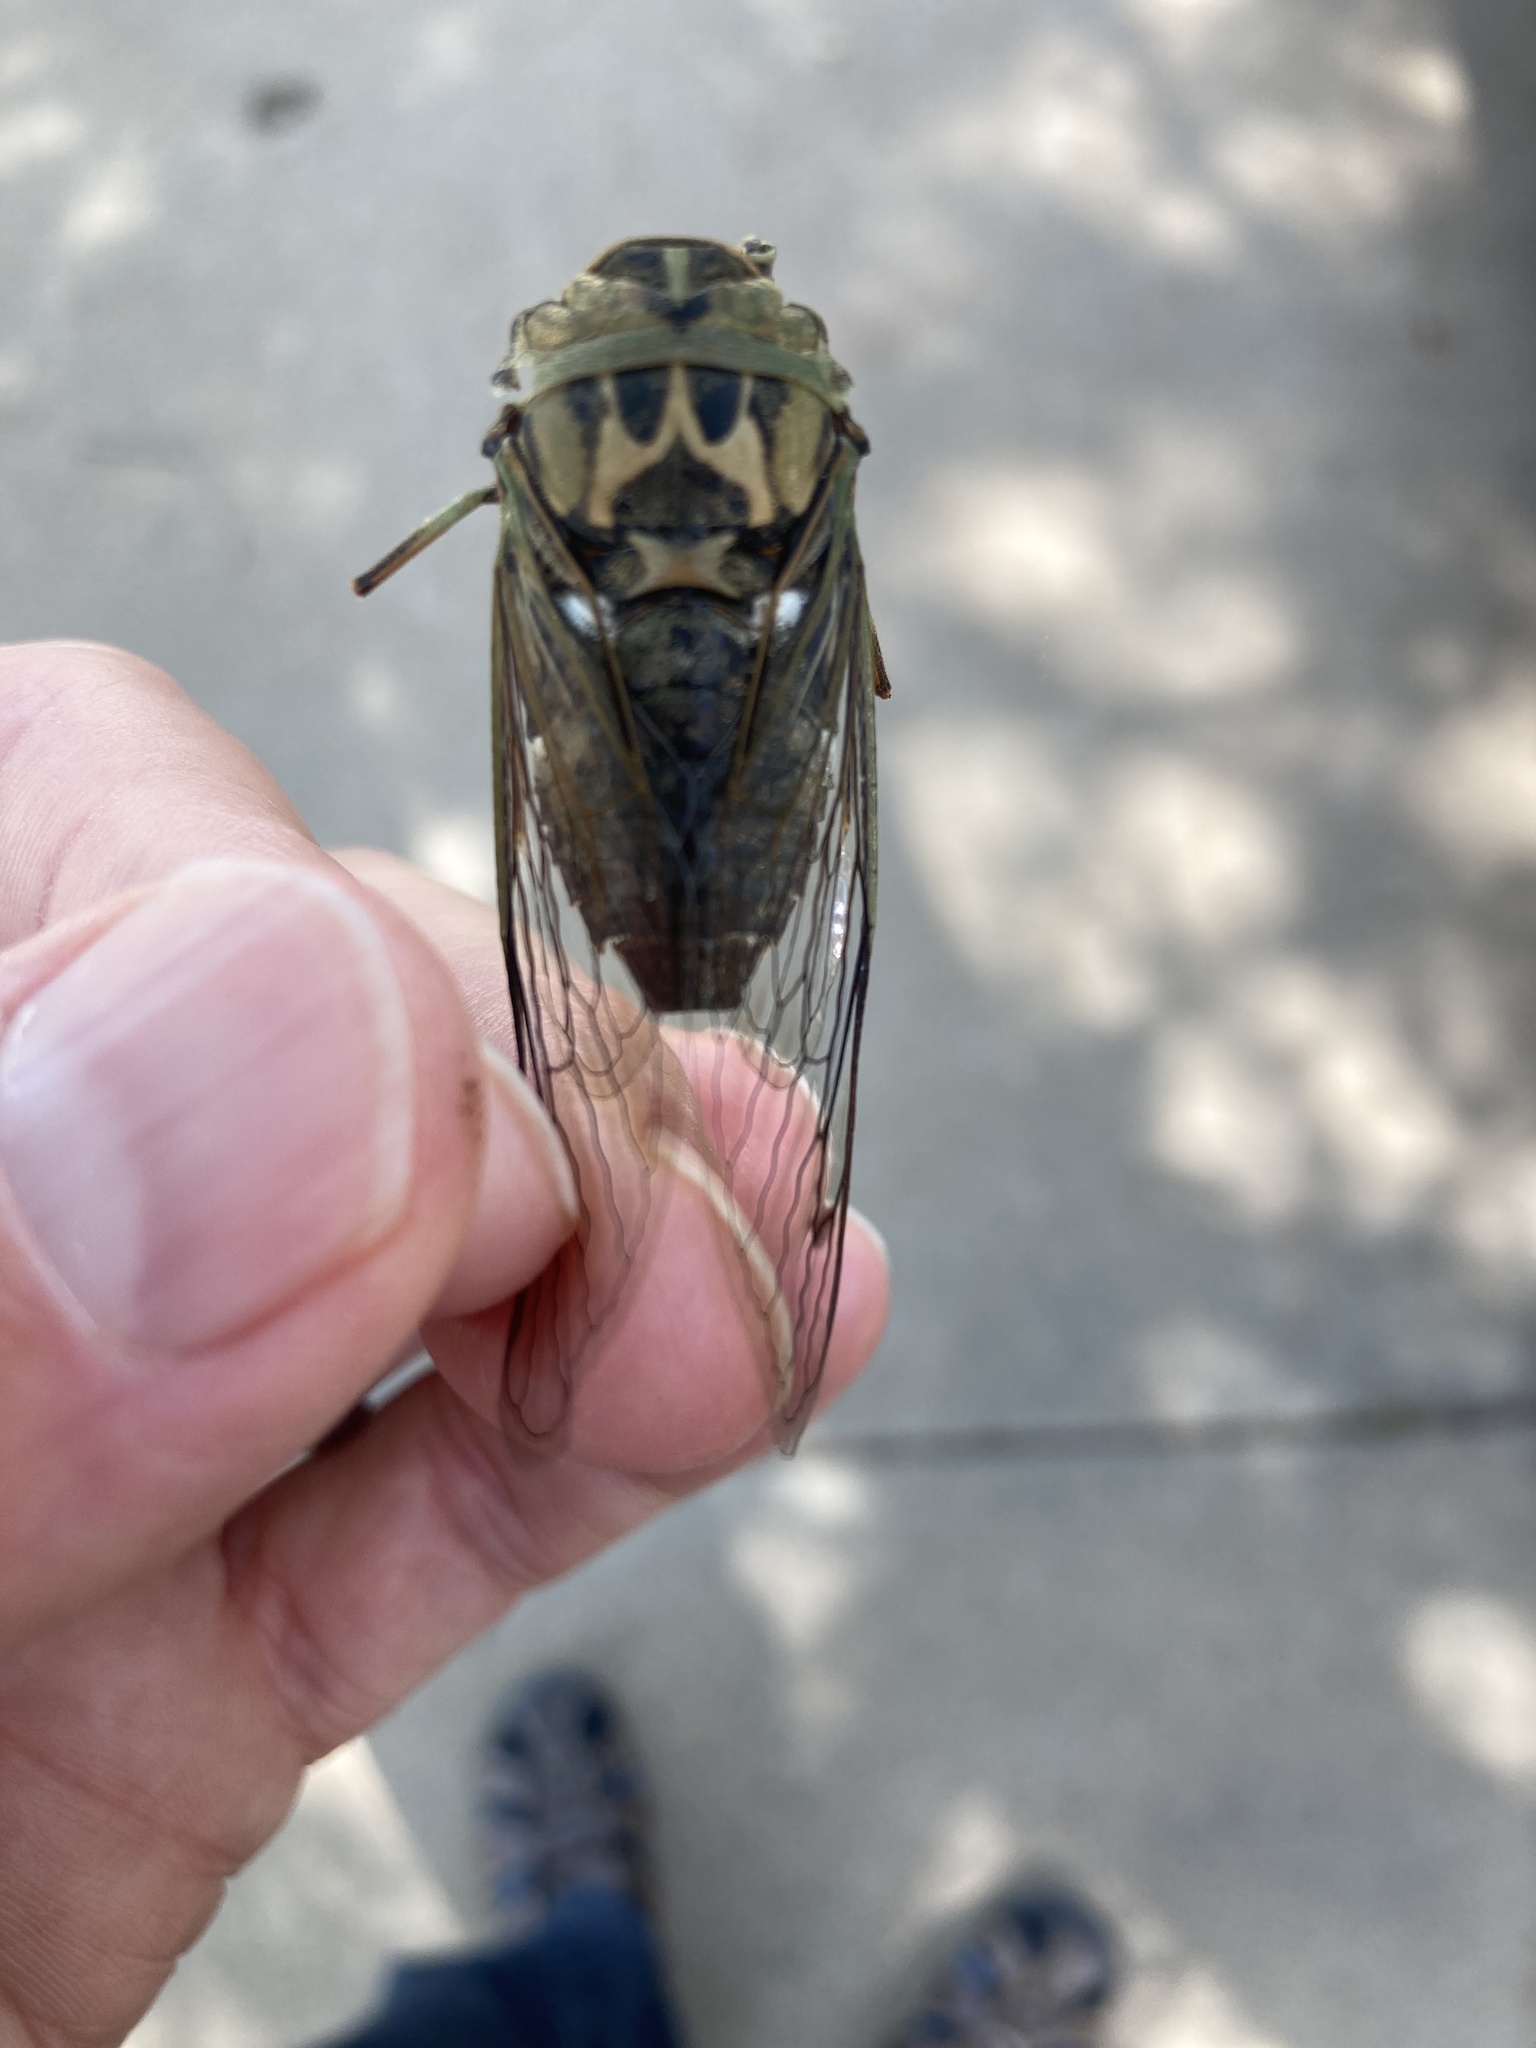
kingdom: Animalia
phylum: Arthropoda
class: Insecta
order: Hemiptera
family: Cicadidae
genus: Neotibicen
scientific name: Neotibicen pruinosus
